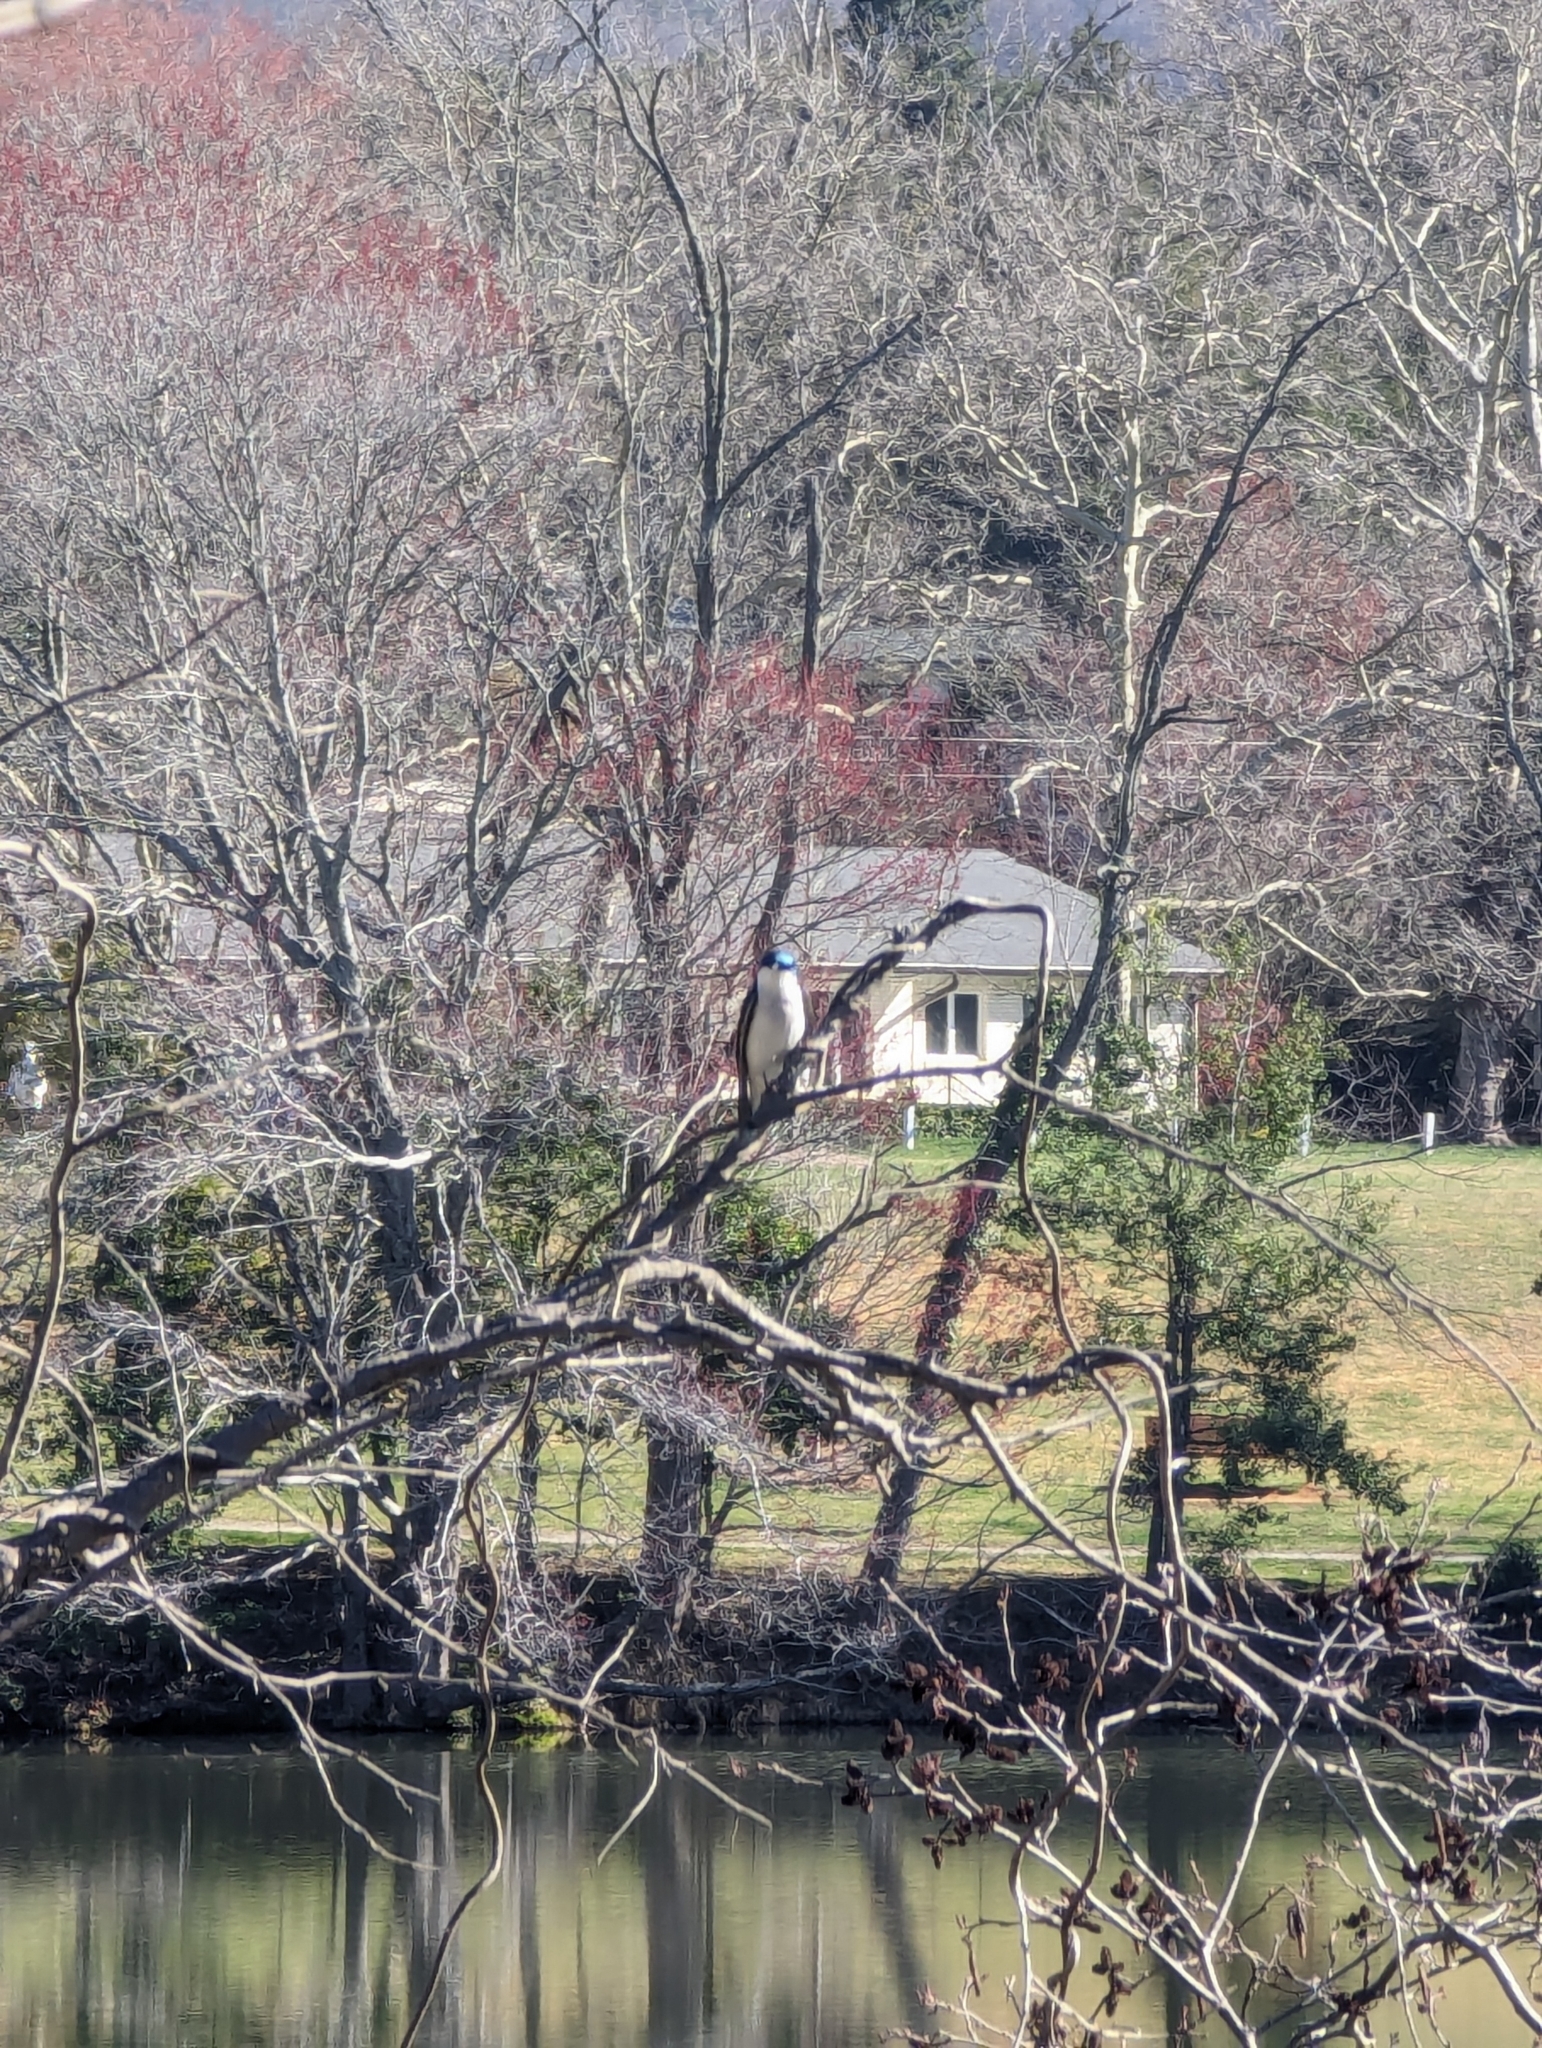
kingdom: Animalia
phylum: Chordata
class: Aves
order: Passeriformes
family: Hirundinidae
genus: Tachycineta
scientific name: Tachycineta bicolor
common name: Tree swallow
